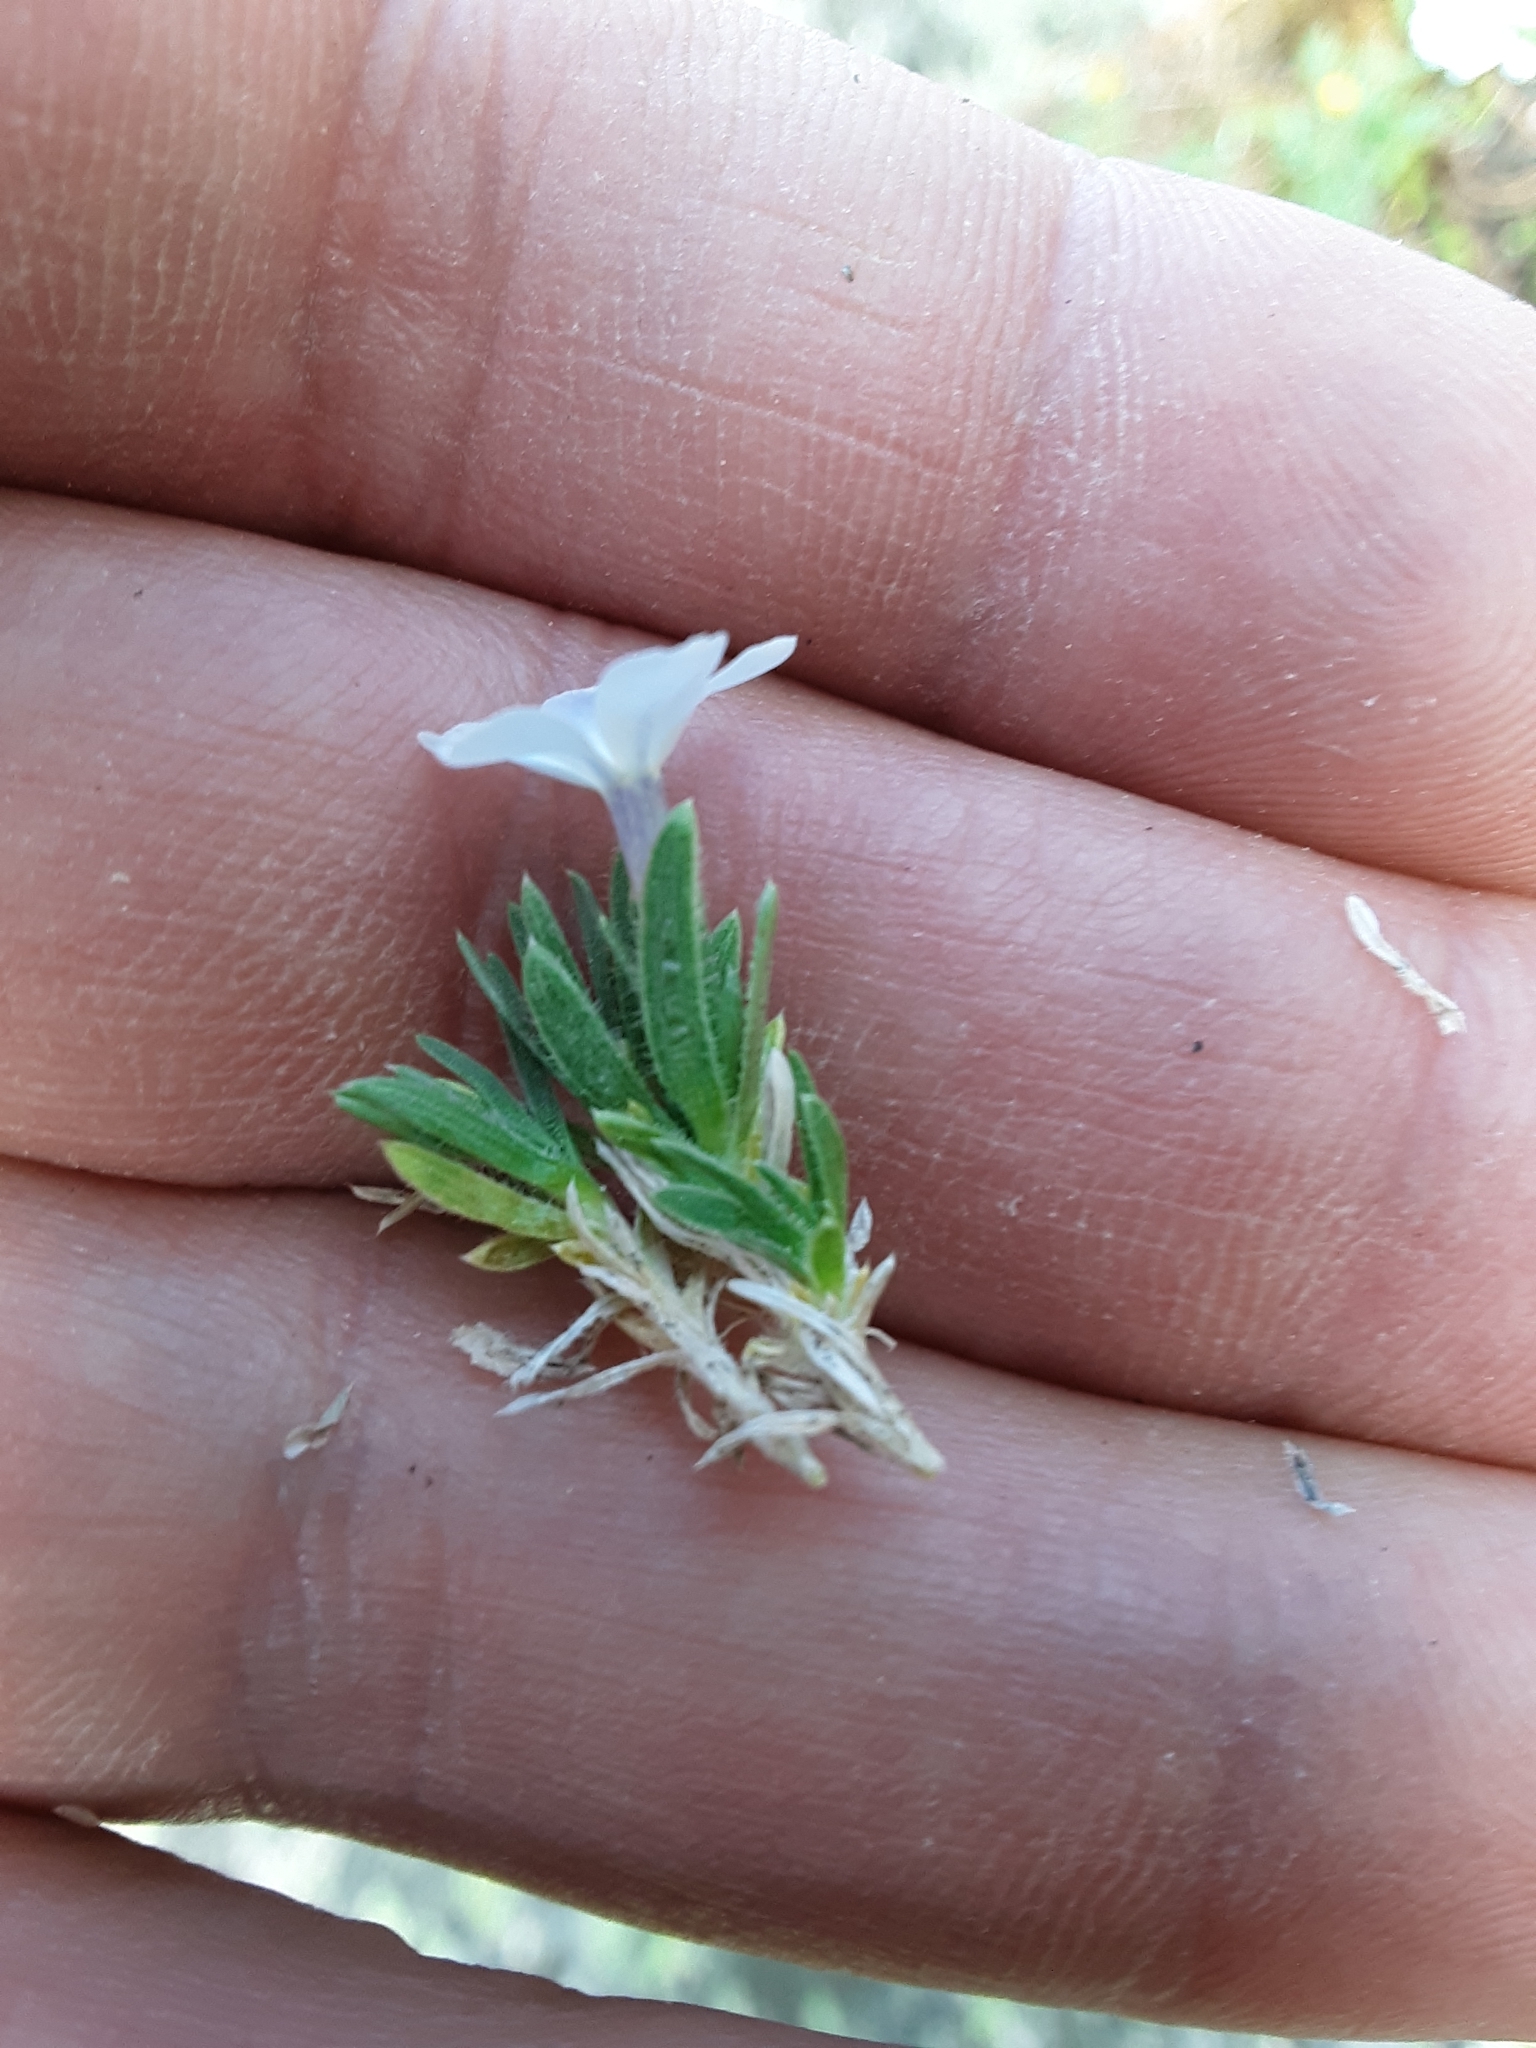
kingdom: Plantae
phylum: Tracheophyta
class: Magnoliopsida
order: Ericales
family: Polemoniaceae
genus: Phlox
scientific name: Phlox pulvinata
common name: Cushion phlox
